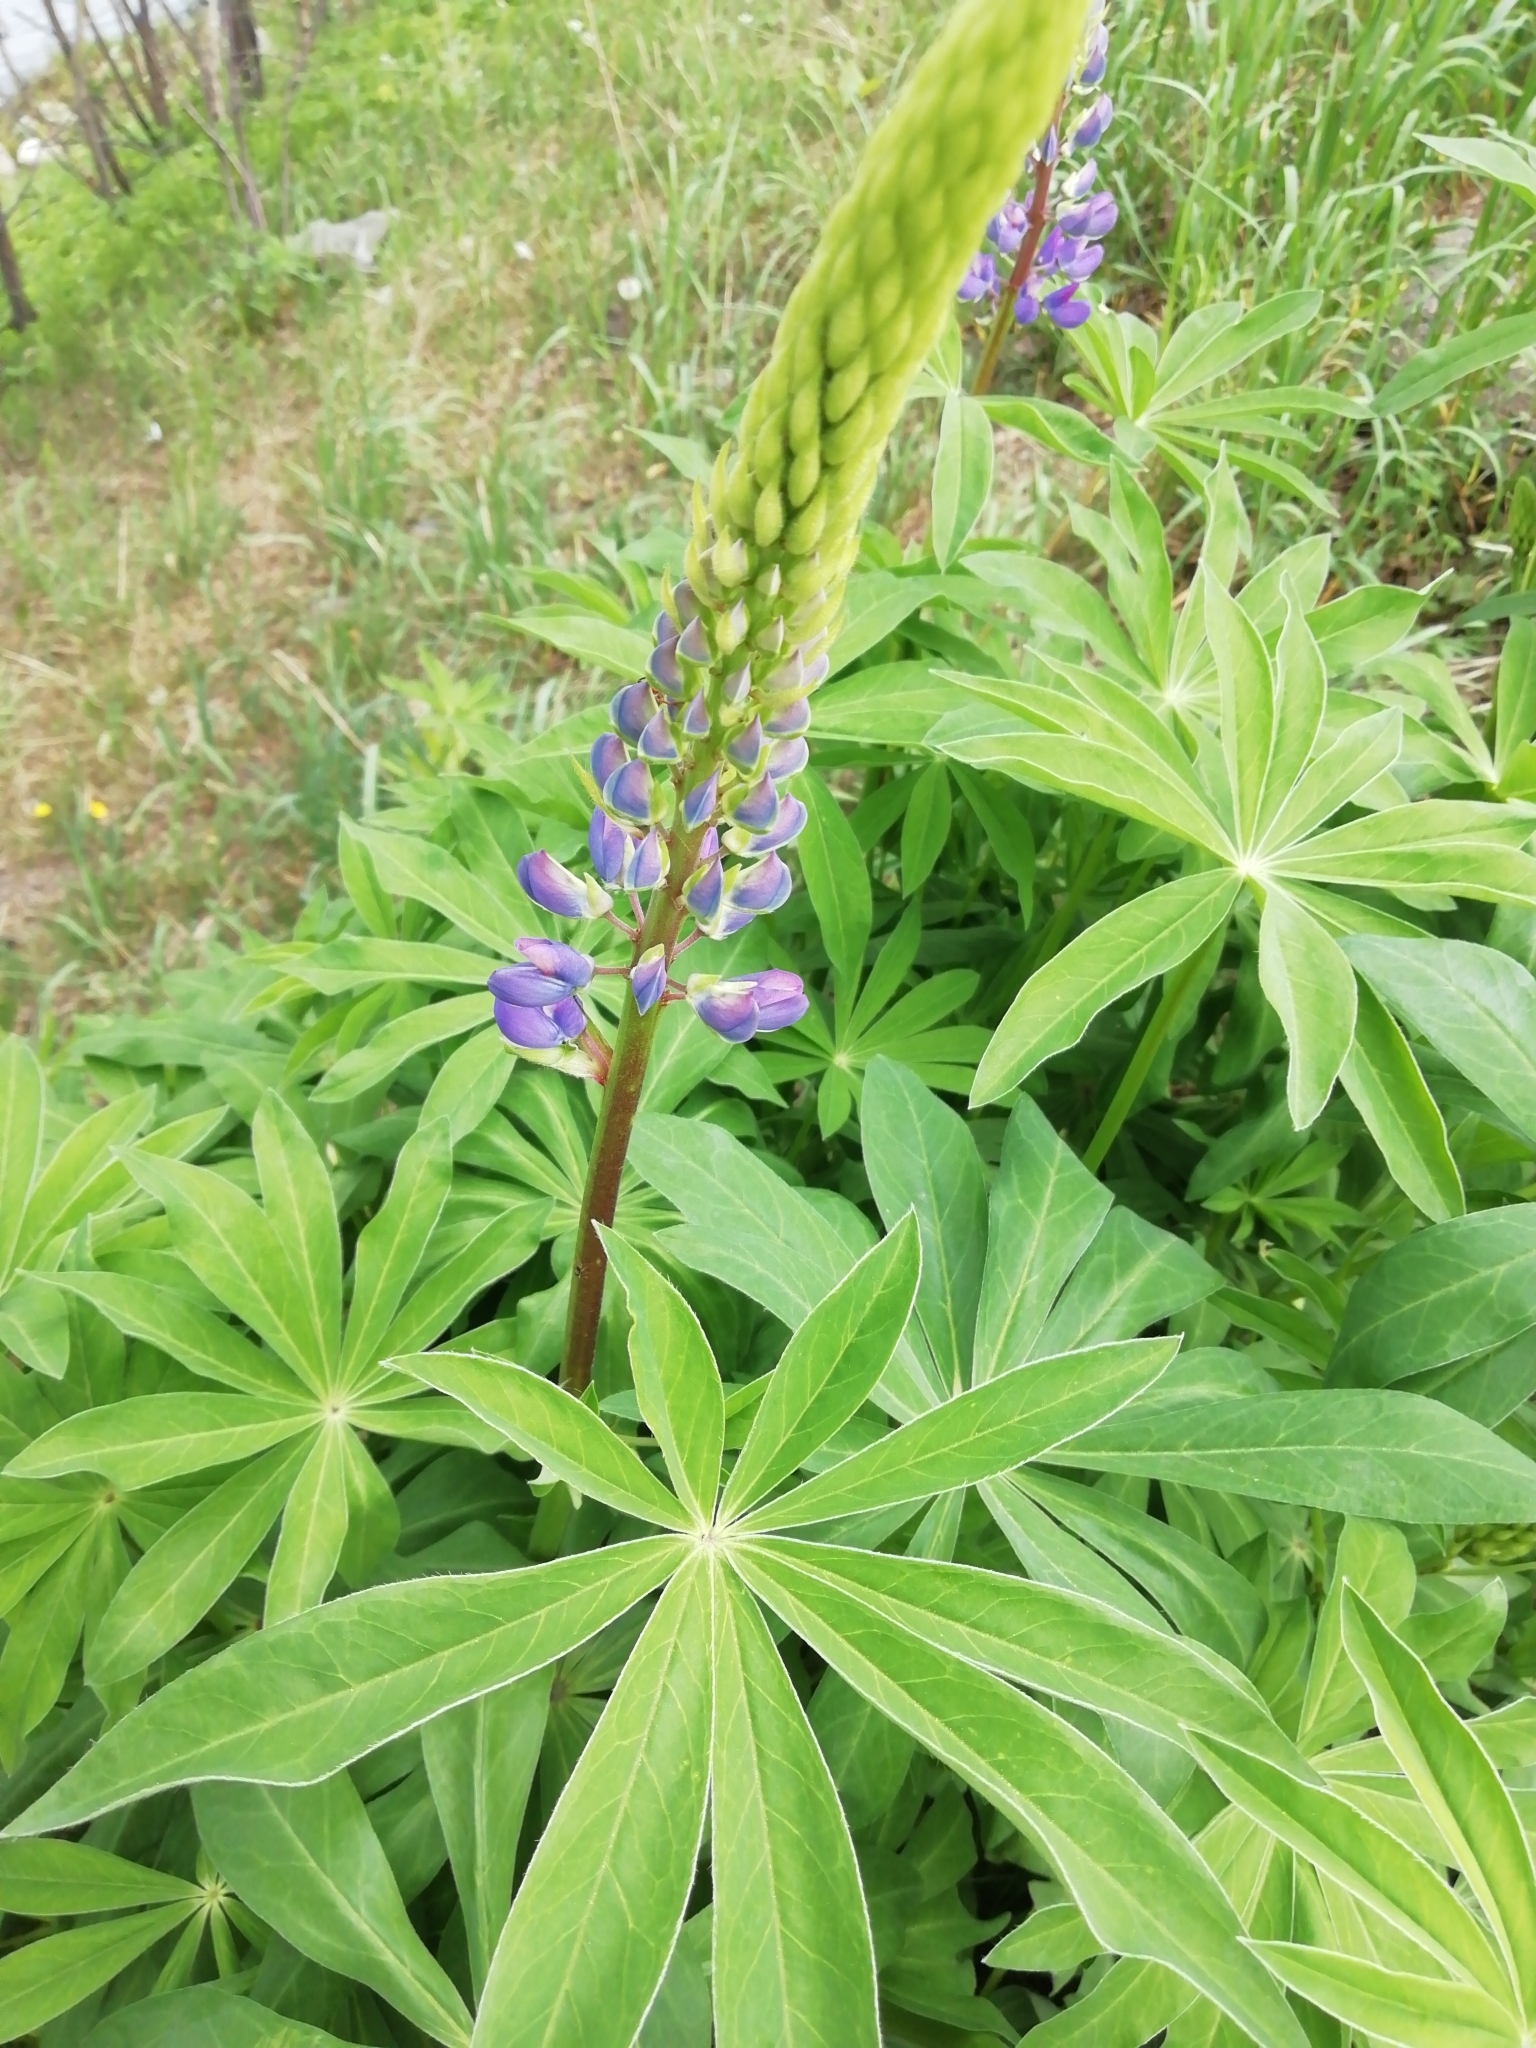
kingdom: Plantae
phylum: Tracheophyta
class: Magnoliopsida
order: Fabales
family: Fabaceae
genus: Lupinus
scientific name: Lupinus polyphyllus
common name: Garden lupin
